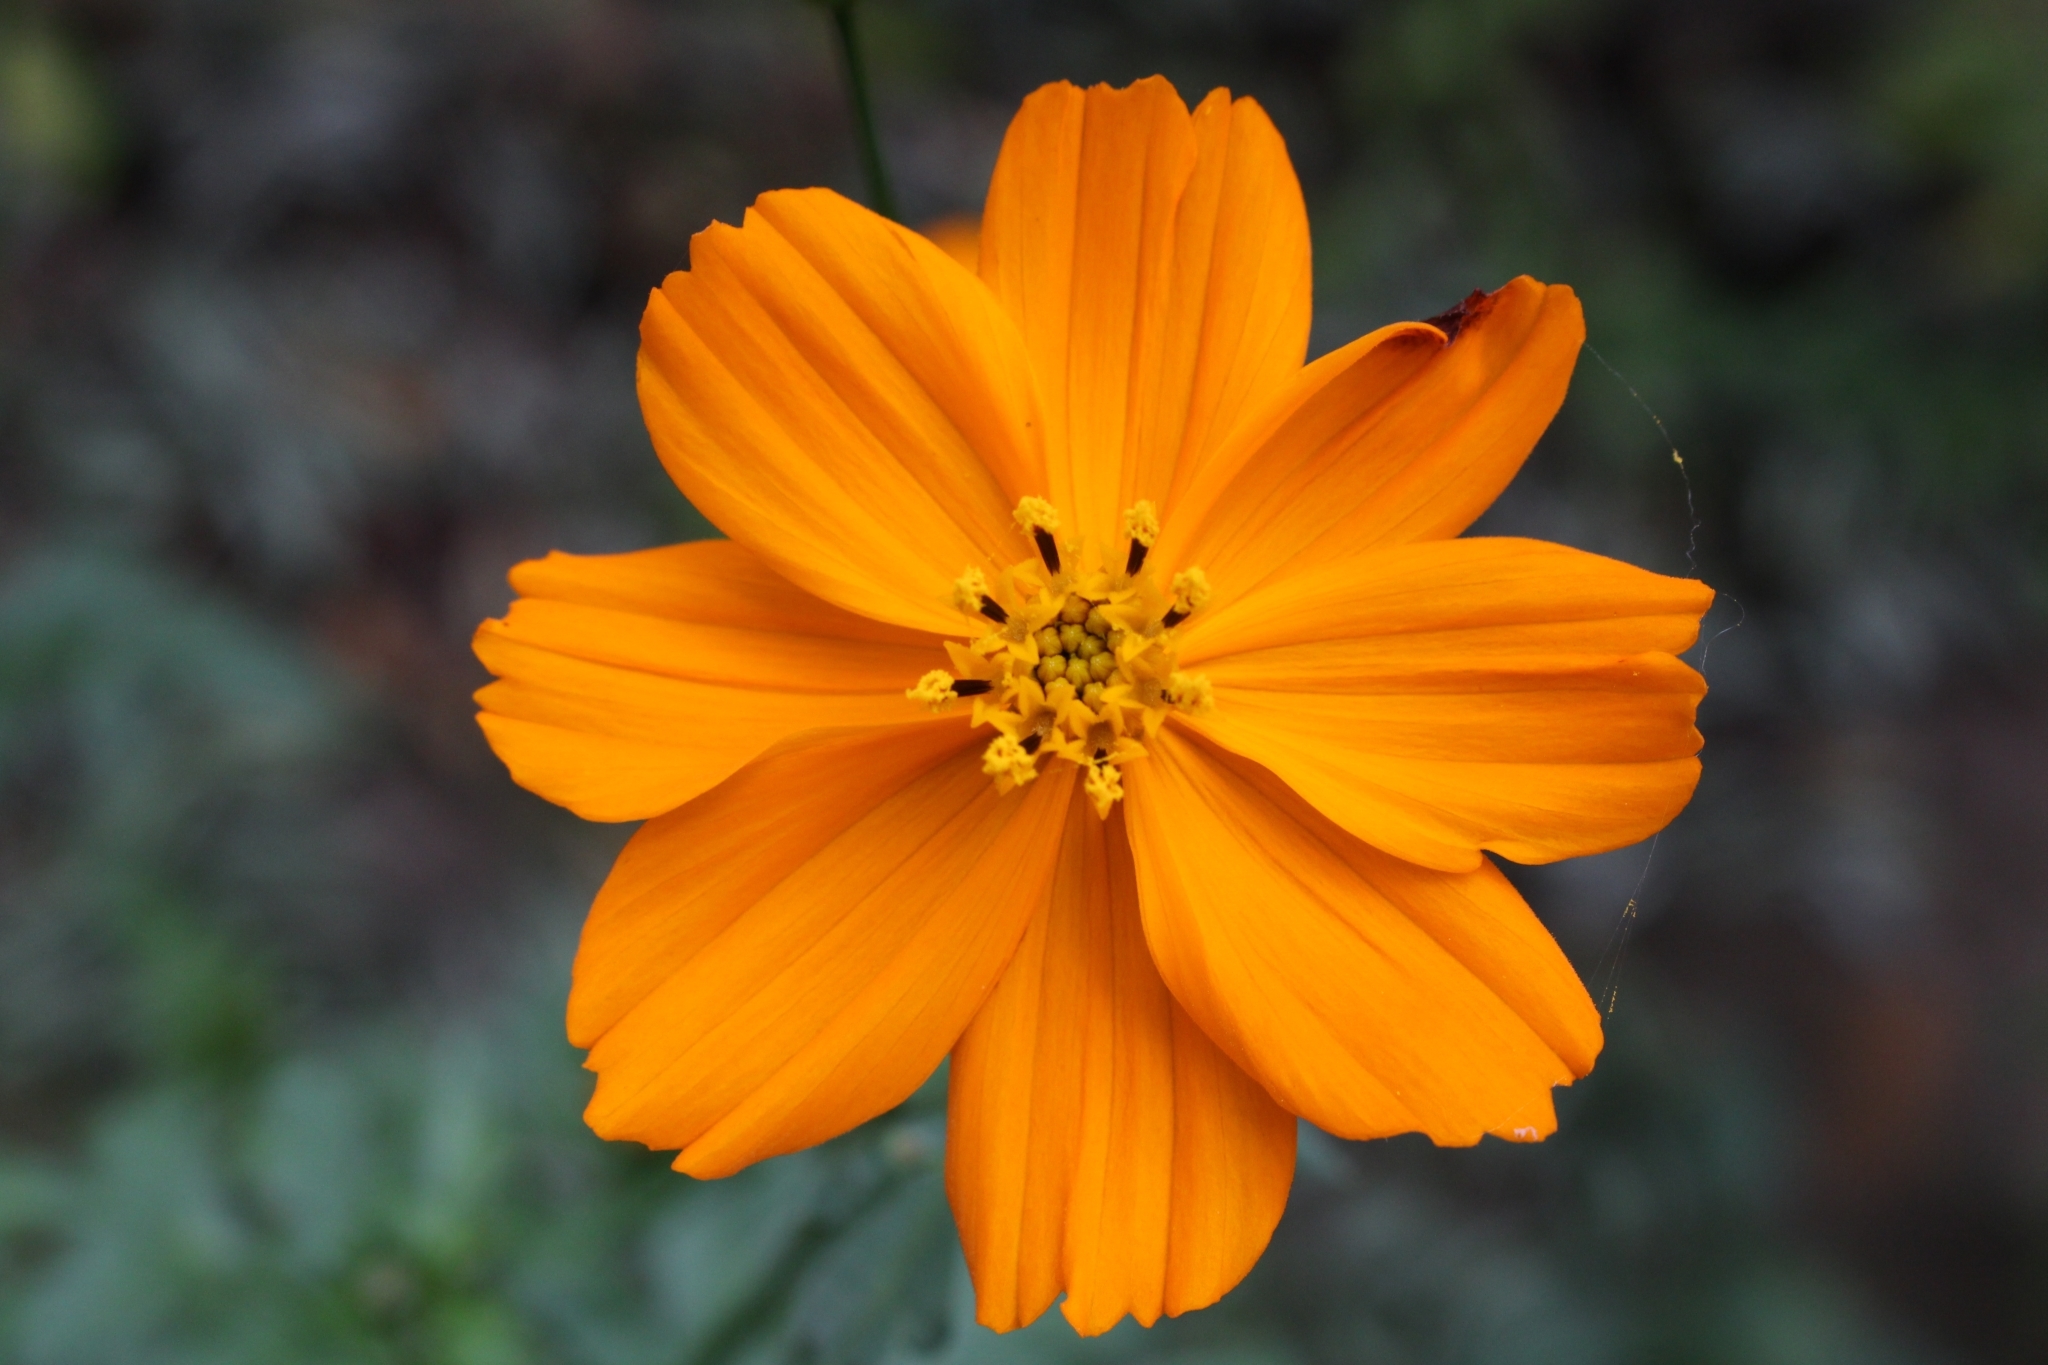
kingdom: Plantae
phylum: Tracheophyta
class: Magnoliopsida
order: Asterales
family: Asteraceae
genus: Cosmos
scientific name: Cosmos sulphureus
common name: Sulphur cosmos
